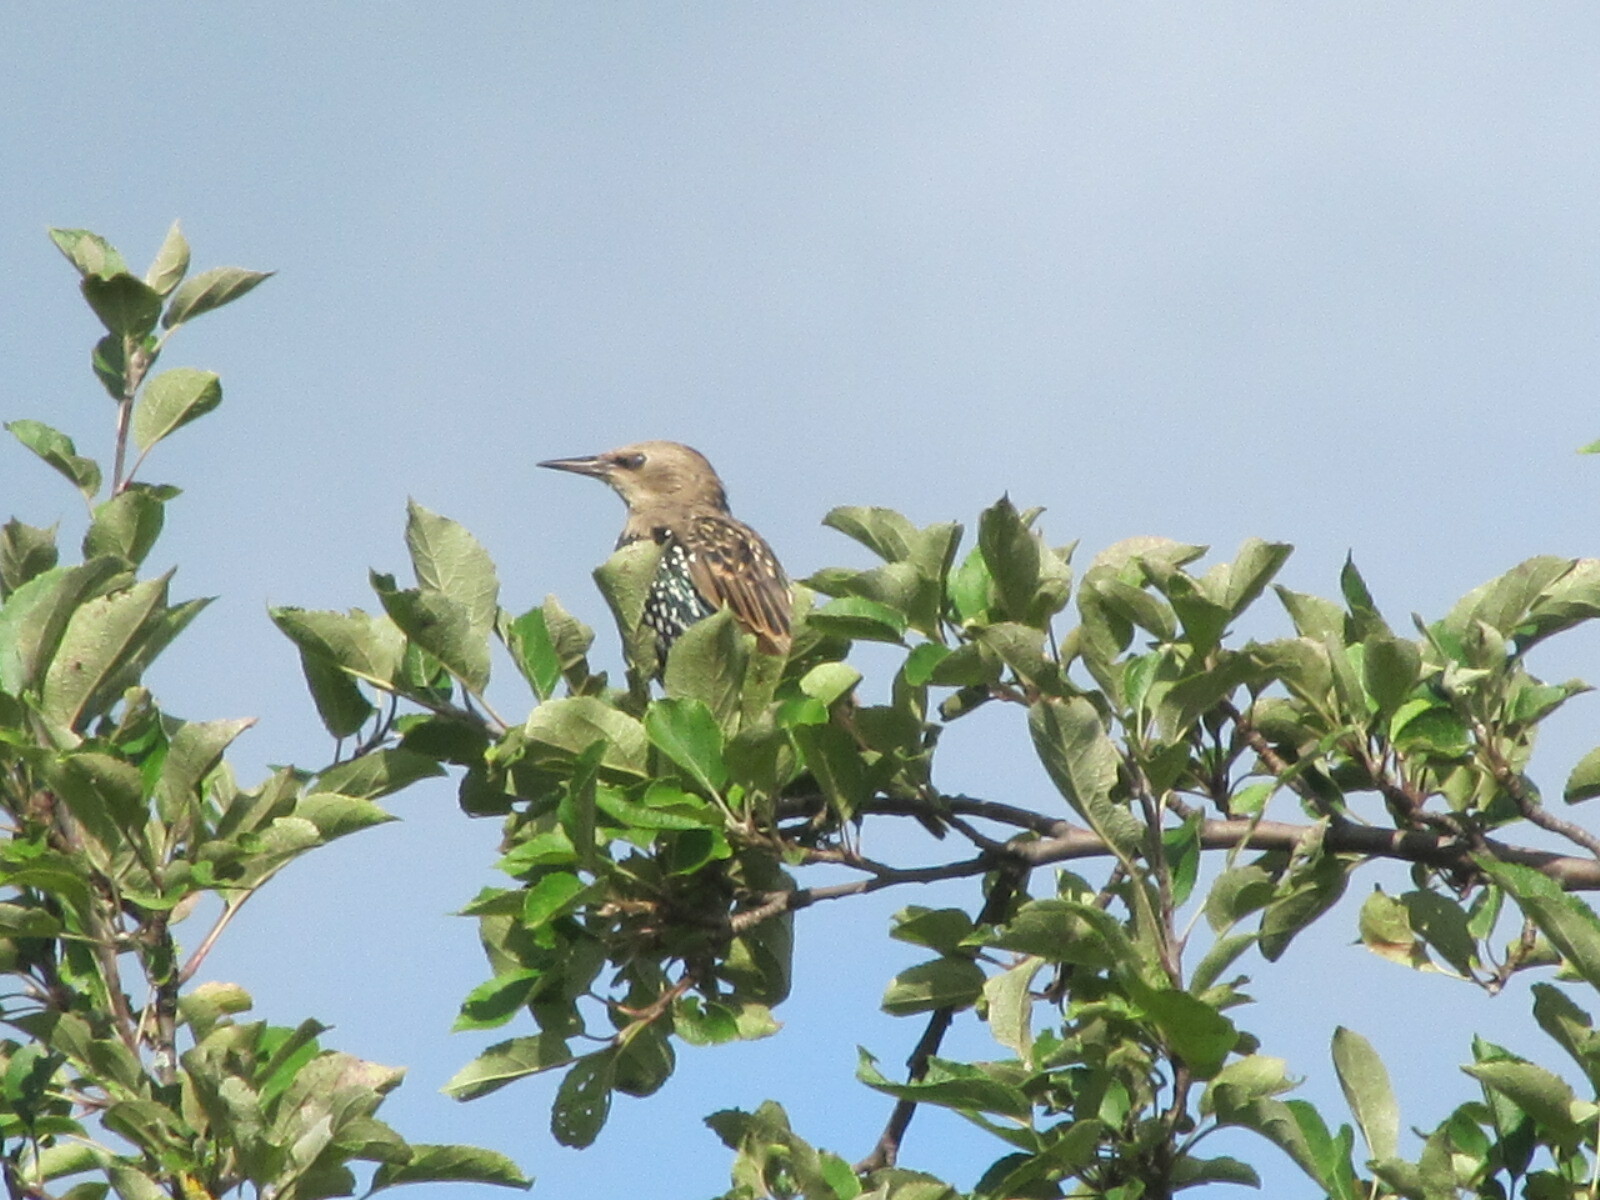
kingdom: Animalia
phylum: Chordata
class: Aves
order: Passeriformes
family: Sturnidae
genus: Sturnus
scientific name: Sturnus vulgaris
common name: Common starling
